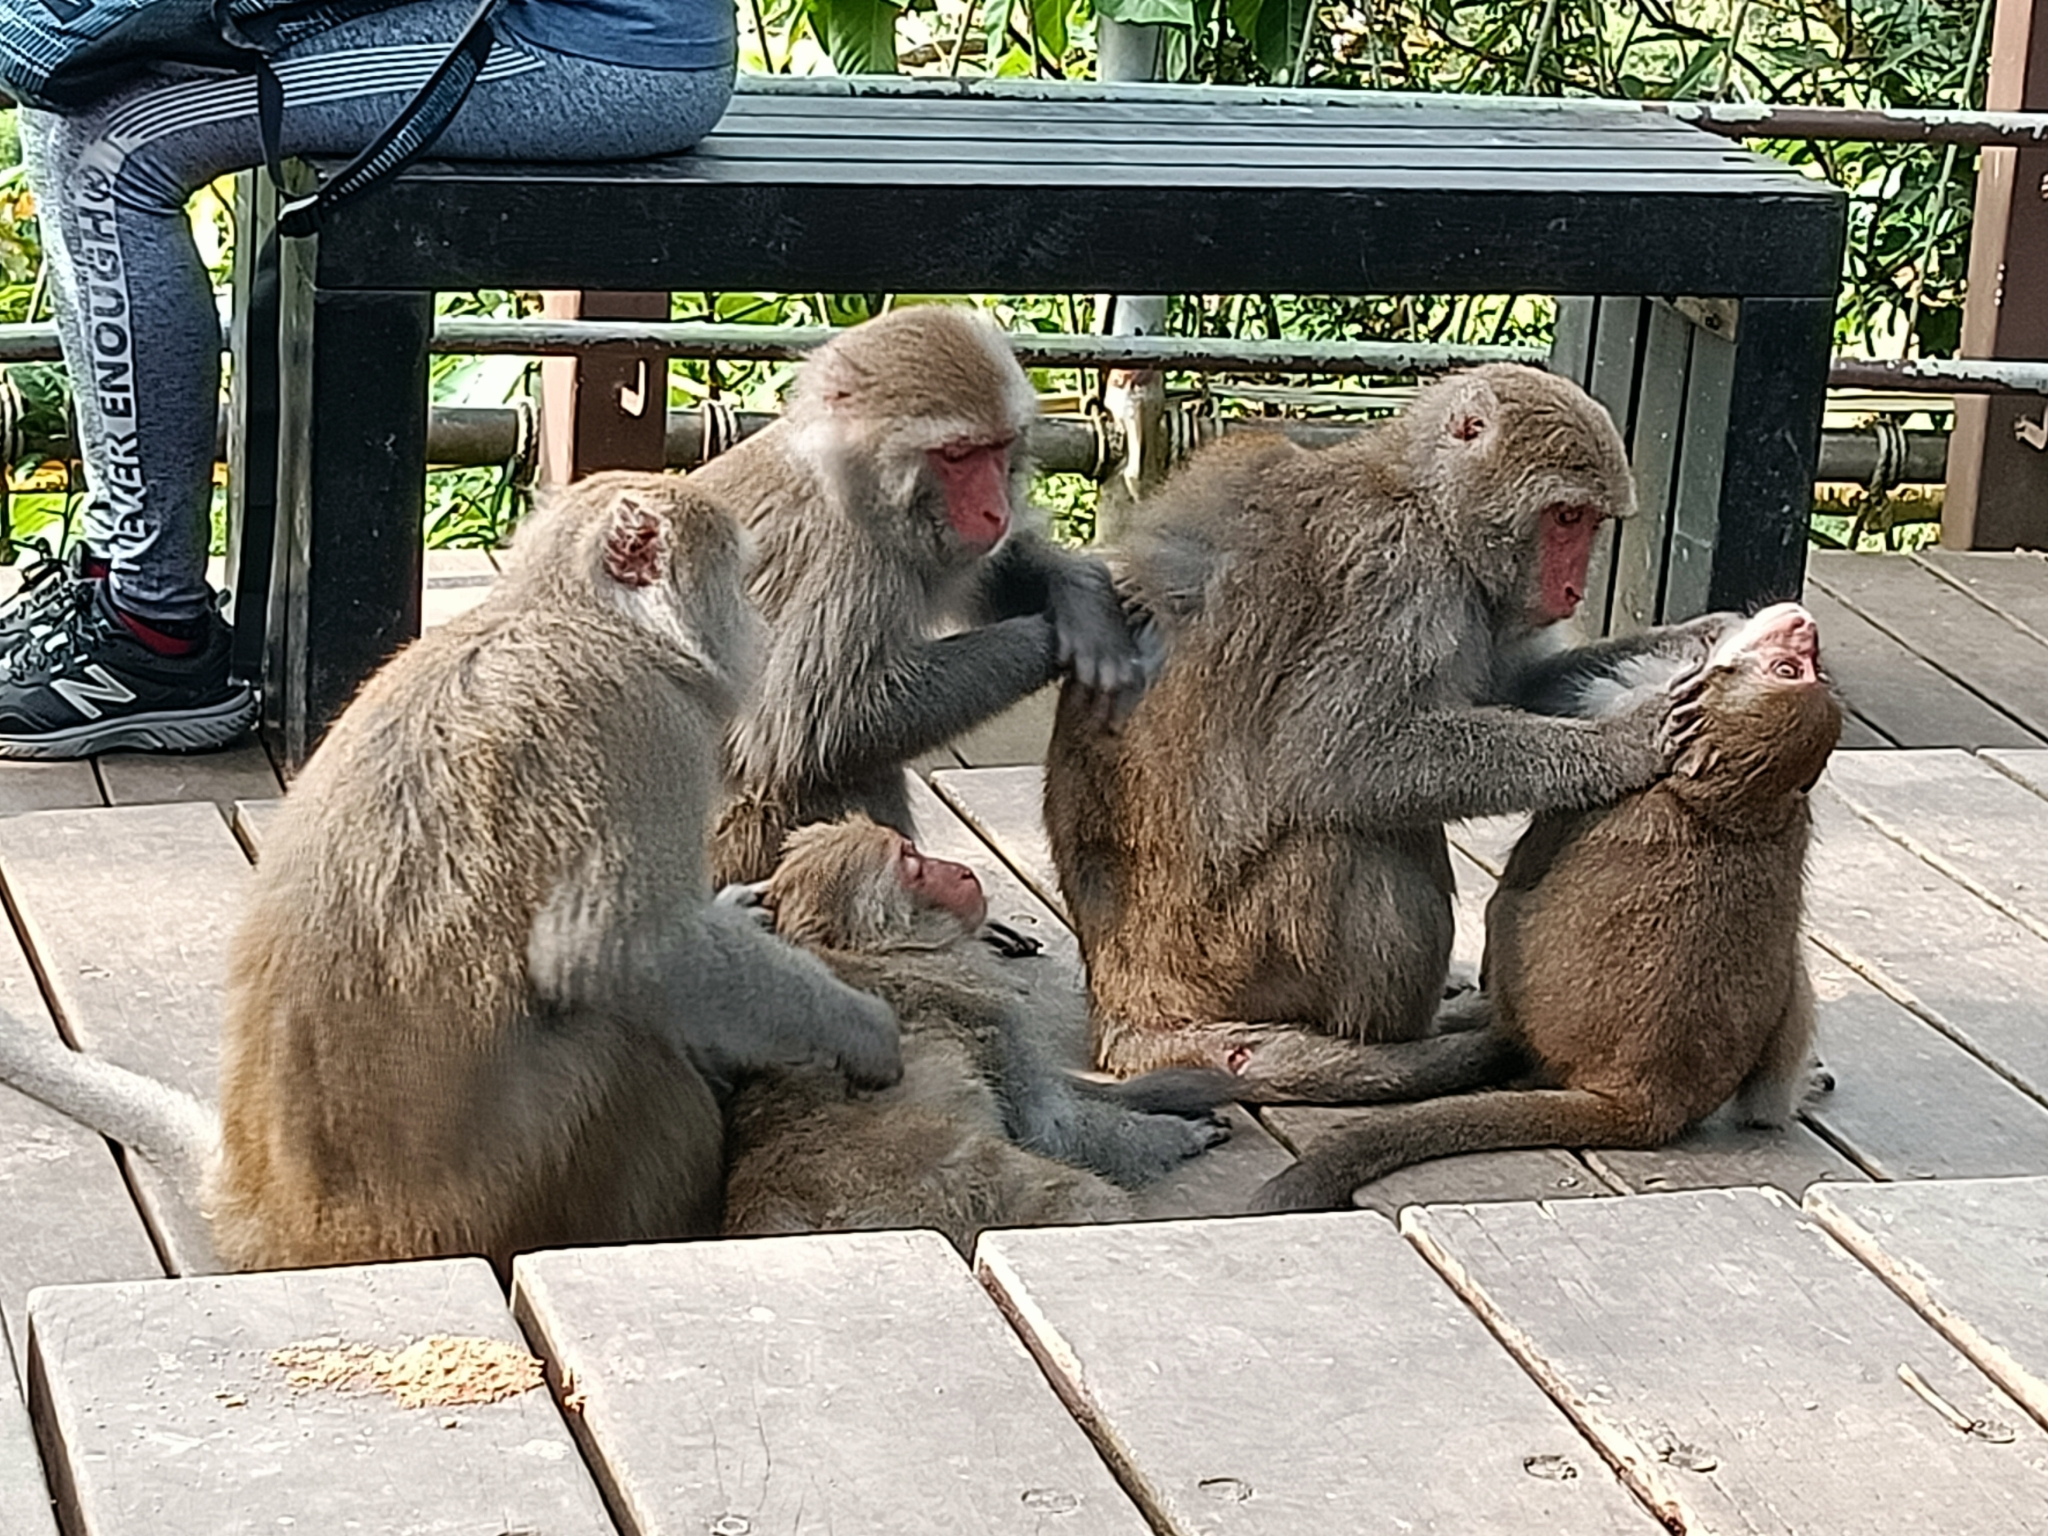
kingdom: Animalia
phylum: Chordata
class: Mammalia
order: Primates
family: Cercopithecidae
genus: Macaca
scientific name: Macaca cyclopis
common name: Formosan rock macaque
